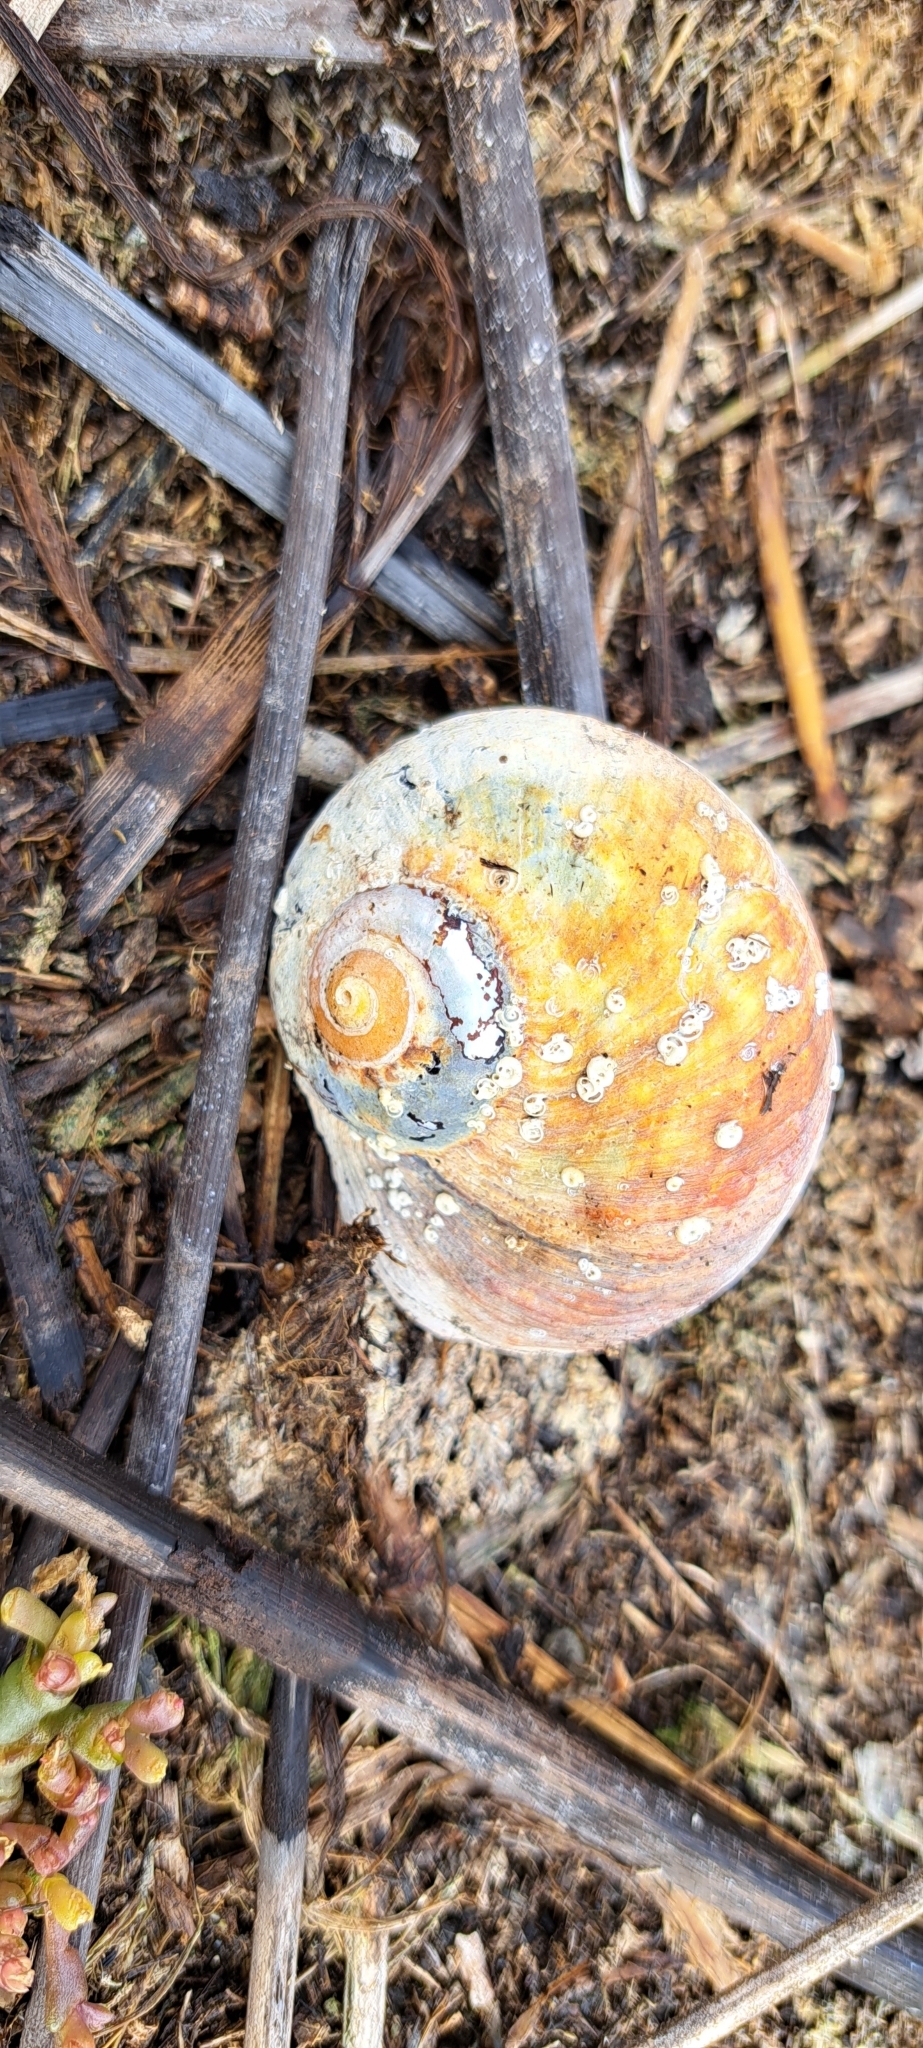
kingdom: Animalia
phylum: Mollusca
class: Gastropoda
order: Trochida
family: Turbinidae
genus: Turbo
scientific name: Turbo sarmaticus
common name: South african turban
